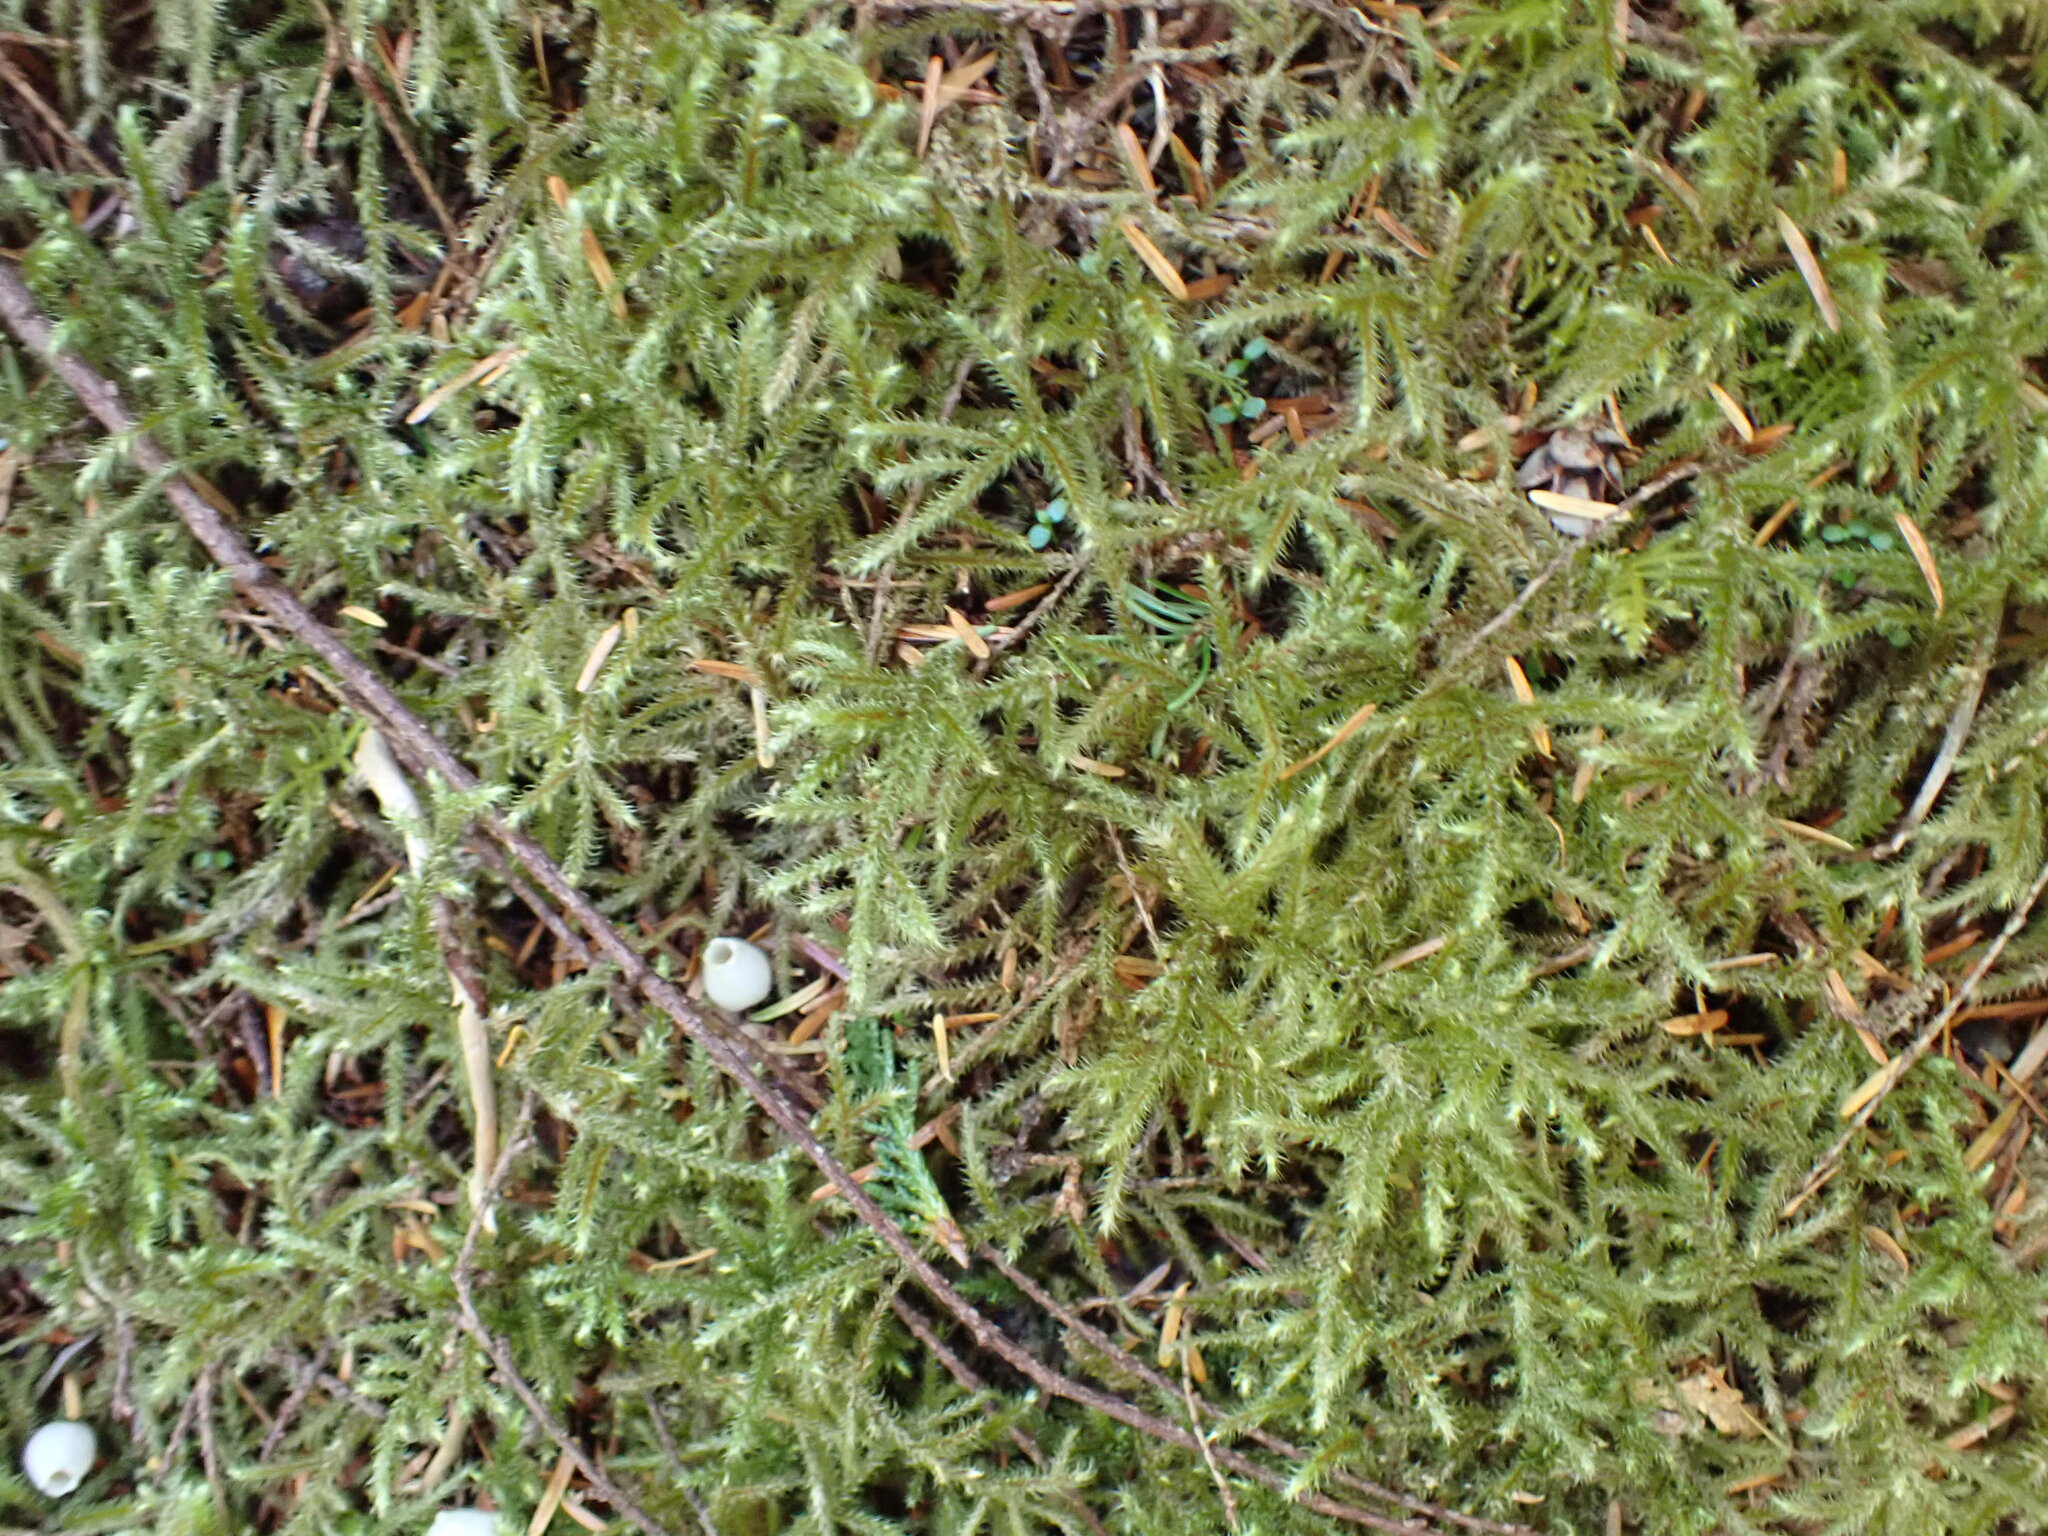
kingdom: Plantae
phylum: Bryophyta
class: Bryopsida
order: Hypnales
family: Hylocomiaceae
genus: Rhytidiadelphus
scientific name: Rhytidiadelphus loreus
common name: Lanky moss
